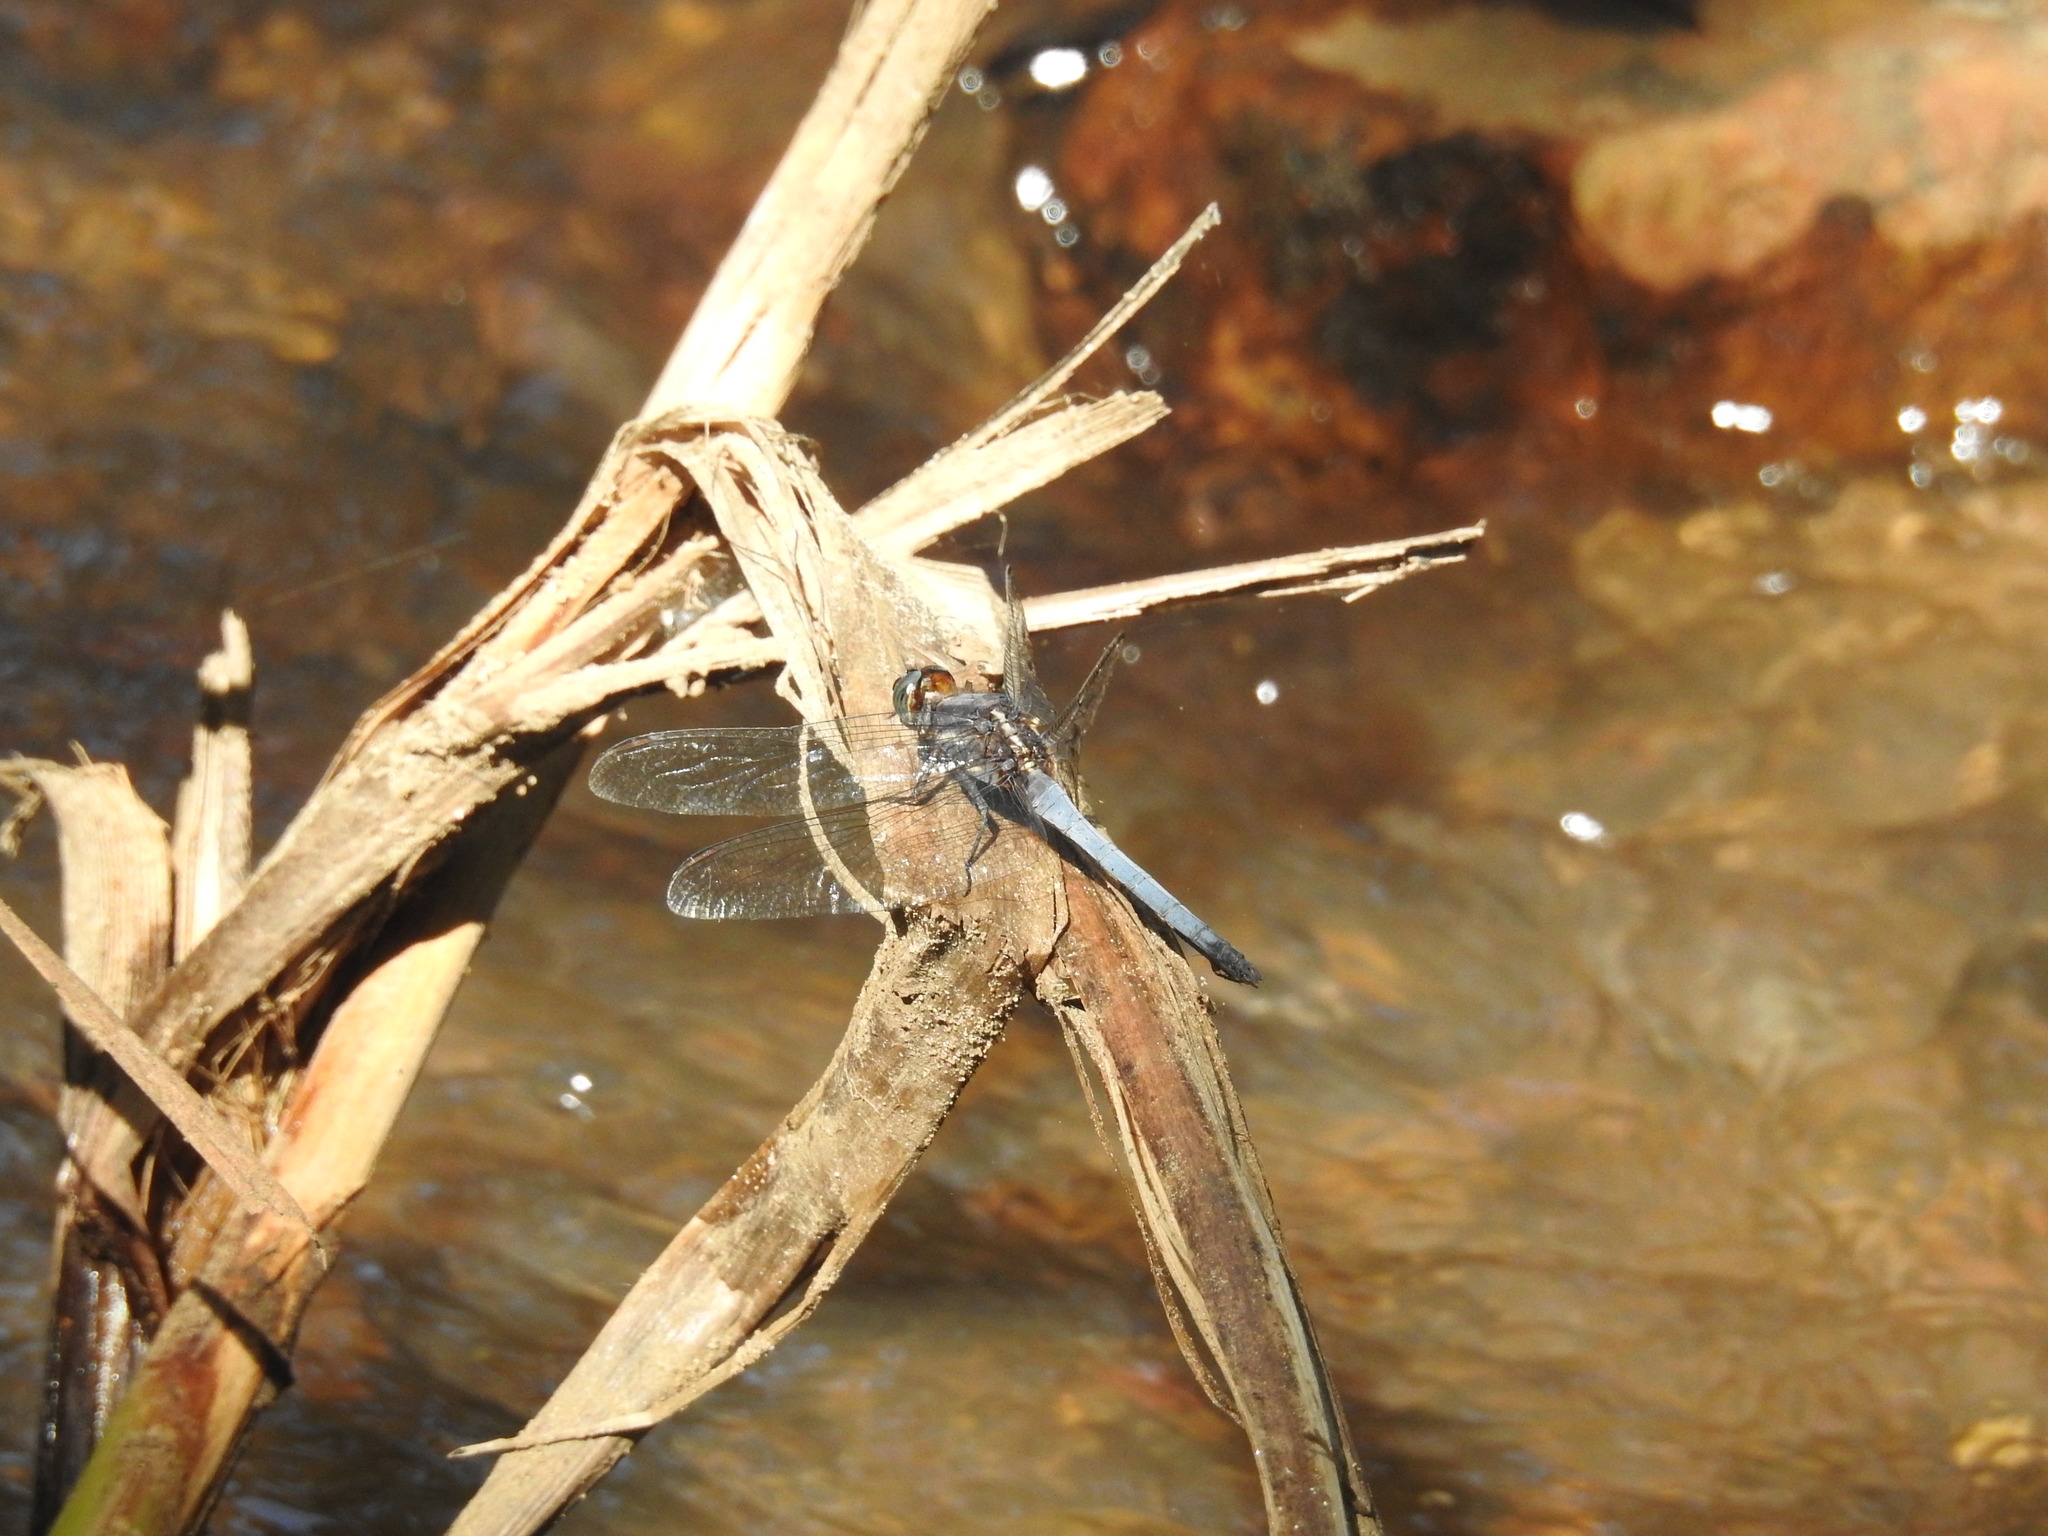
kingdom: Animalia
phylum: Arthropoda
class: Insecta
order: Odonata
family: Libellulidae
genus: Orthetrum
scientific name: Orthetrum glaucum
